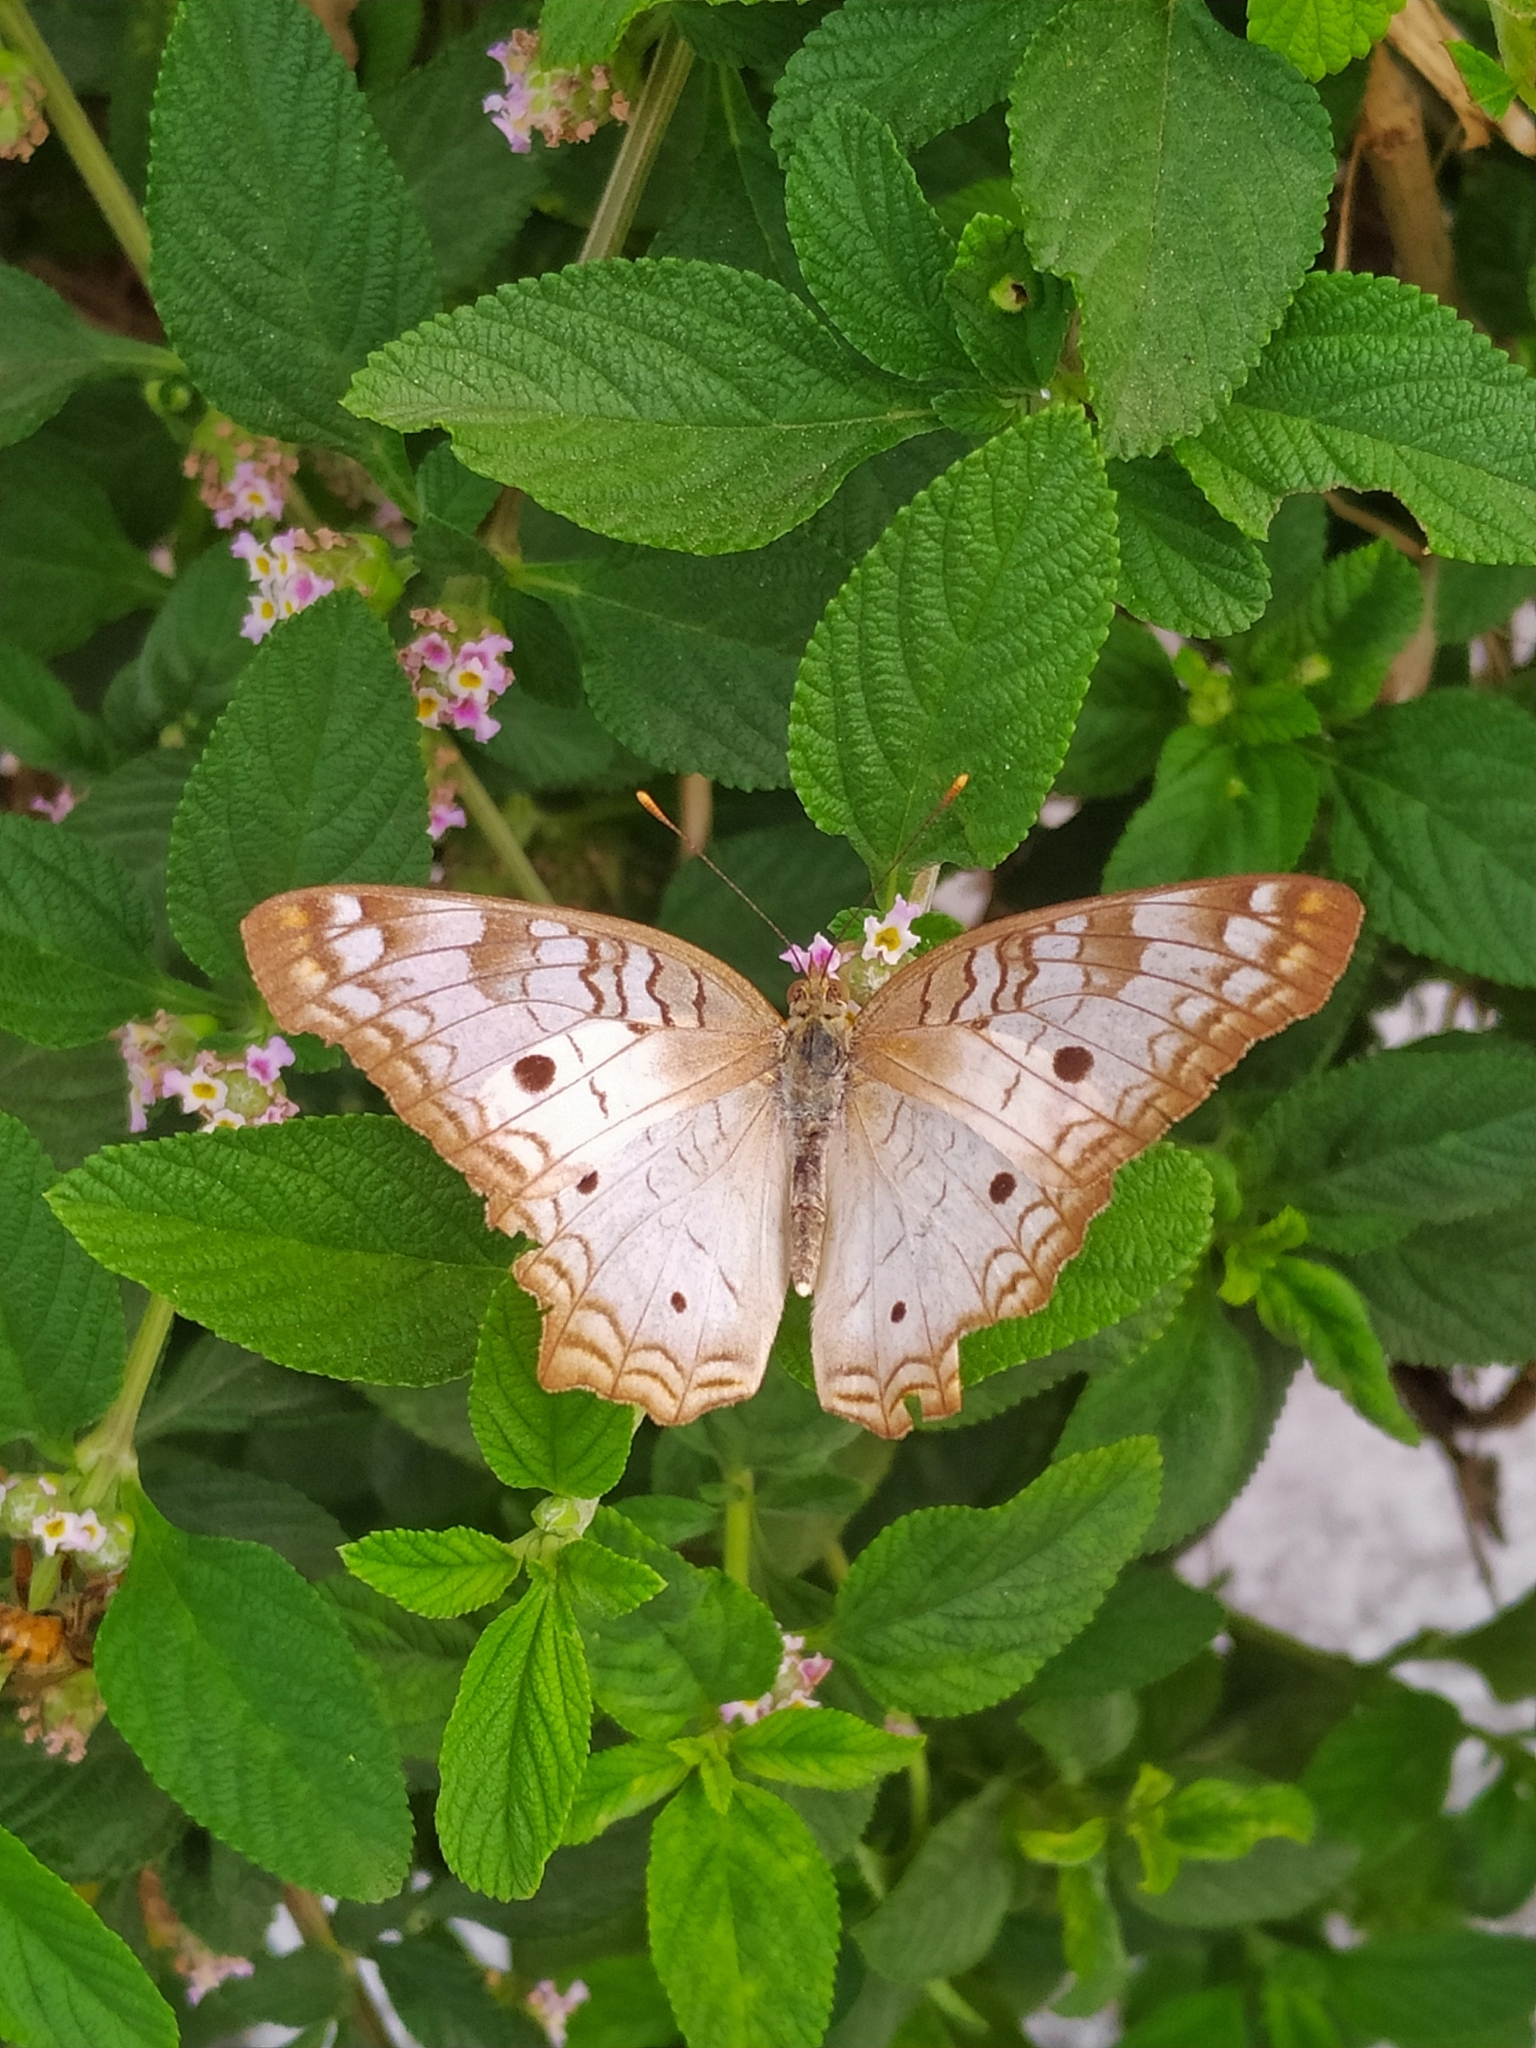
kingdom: Animalia
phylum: Arthropoda
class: Insecta
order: Lepidoptera
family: Nymphalidae
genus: Anartia
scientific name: Anartia jatrophae
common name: White peacock
